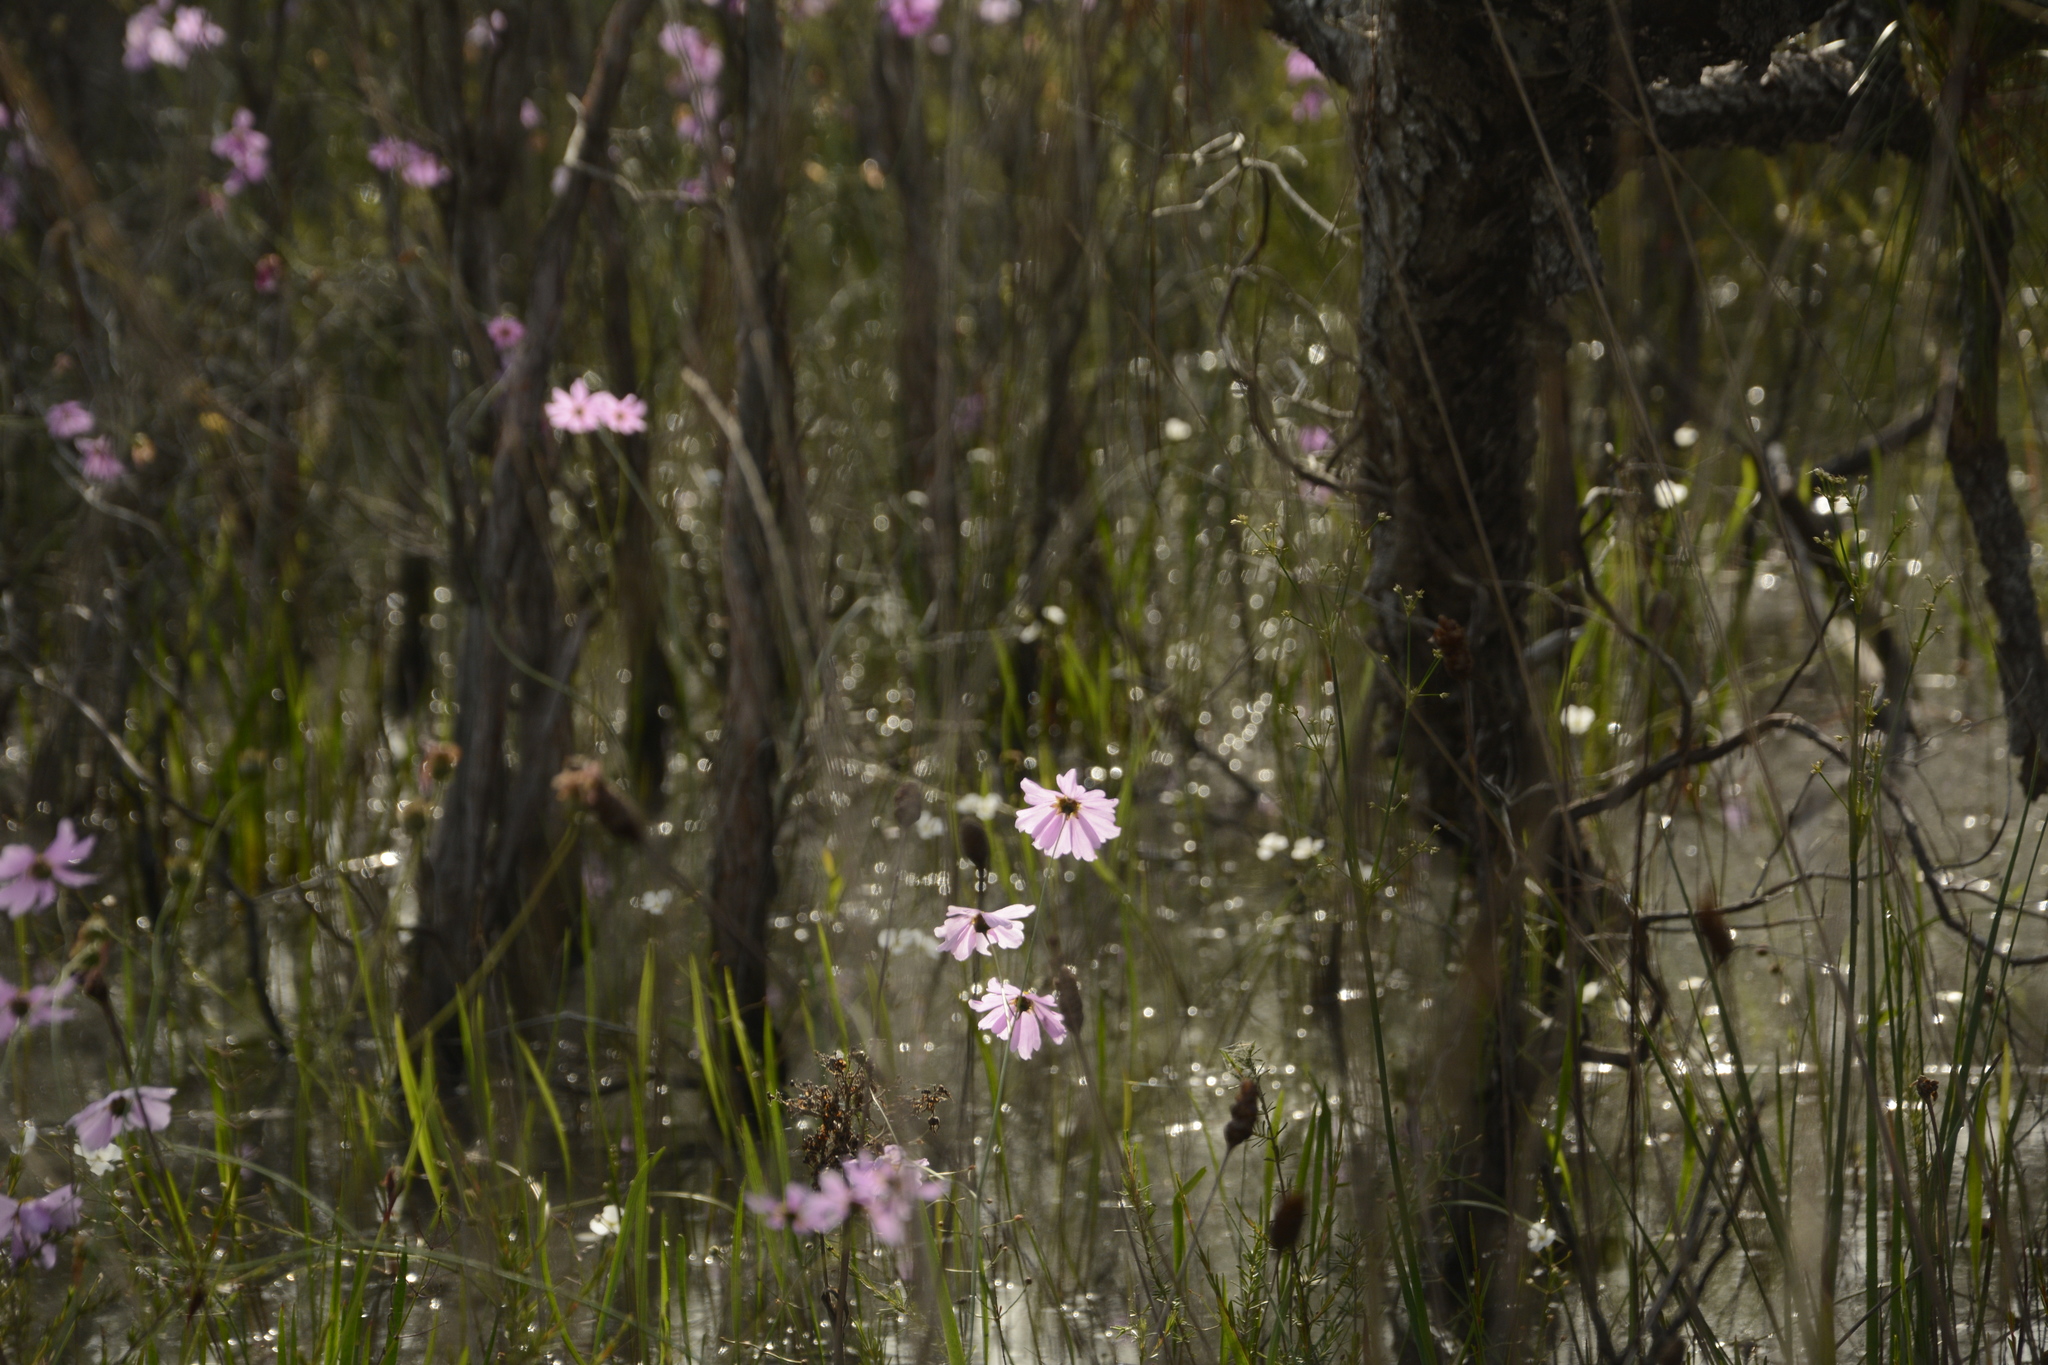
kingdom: Plantae
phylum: Tracheophyta
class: Magnoliopsida
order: Asterales
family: Asteraceae
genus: Coreopsis
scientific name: Coreopsis nudata
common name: Purple tickseed
